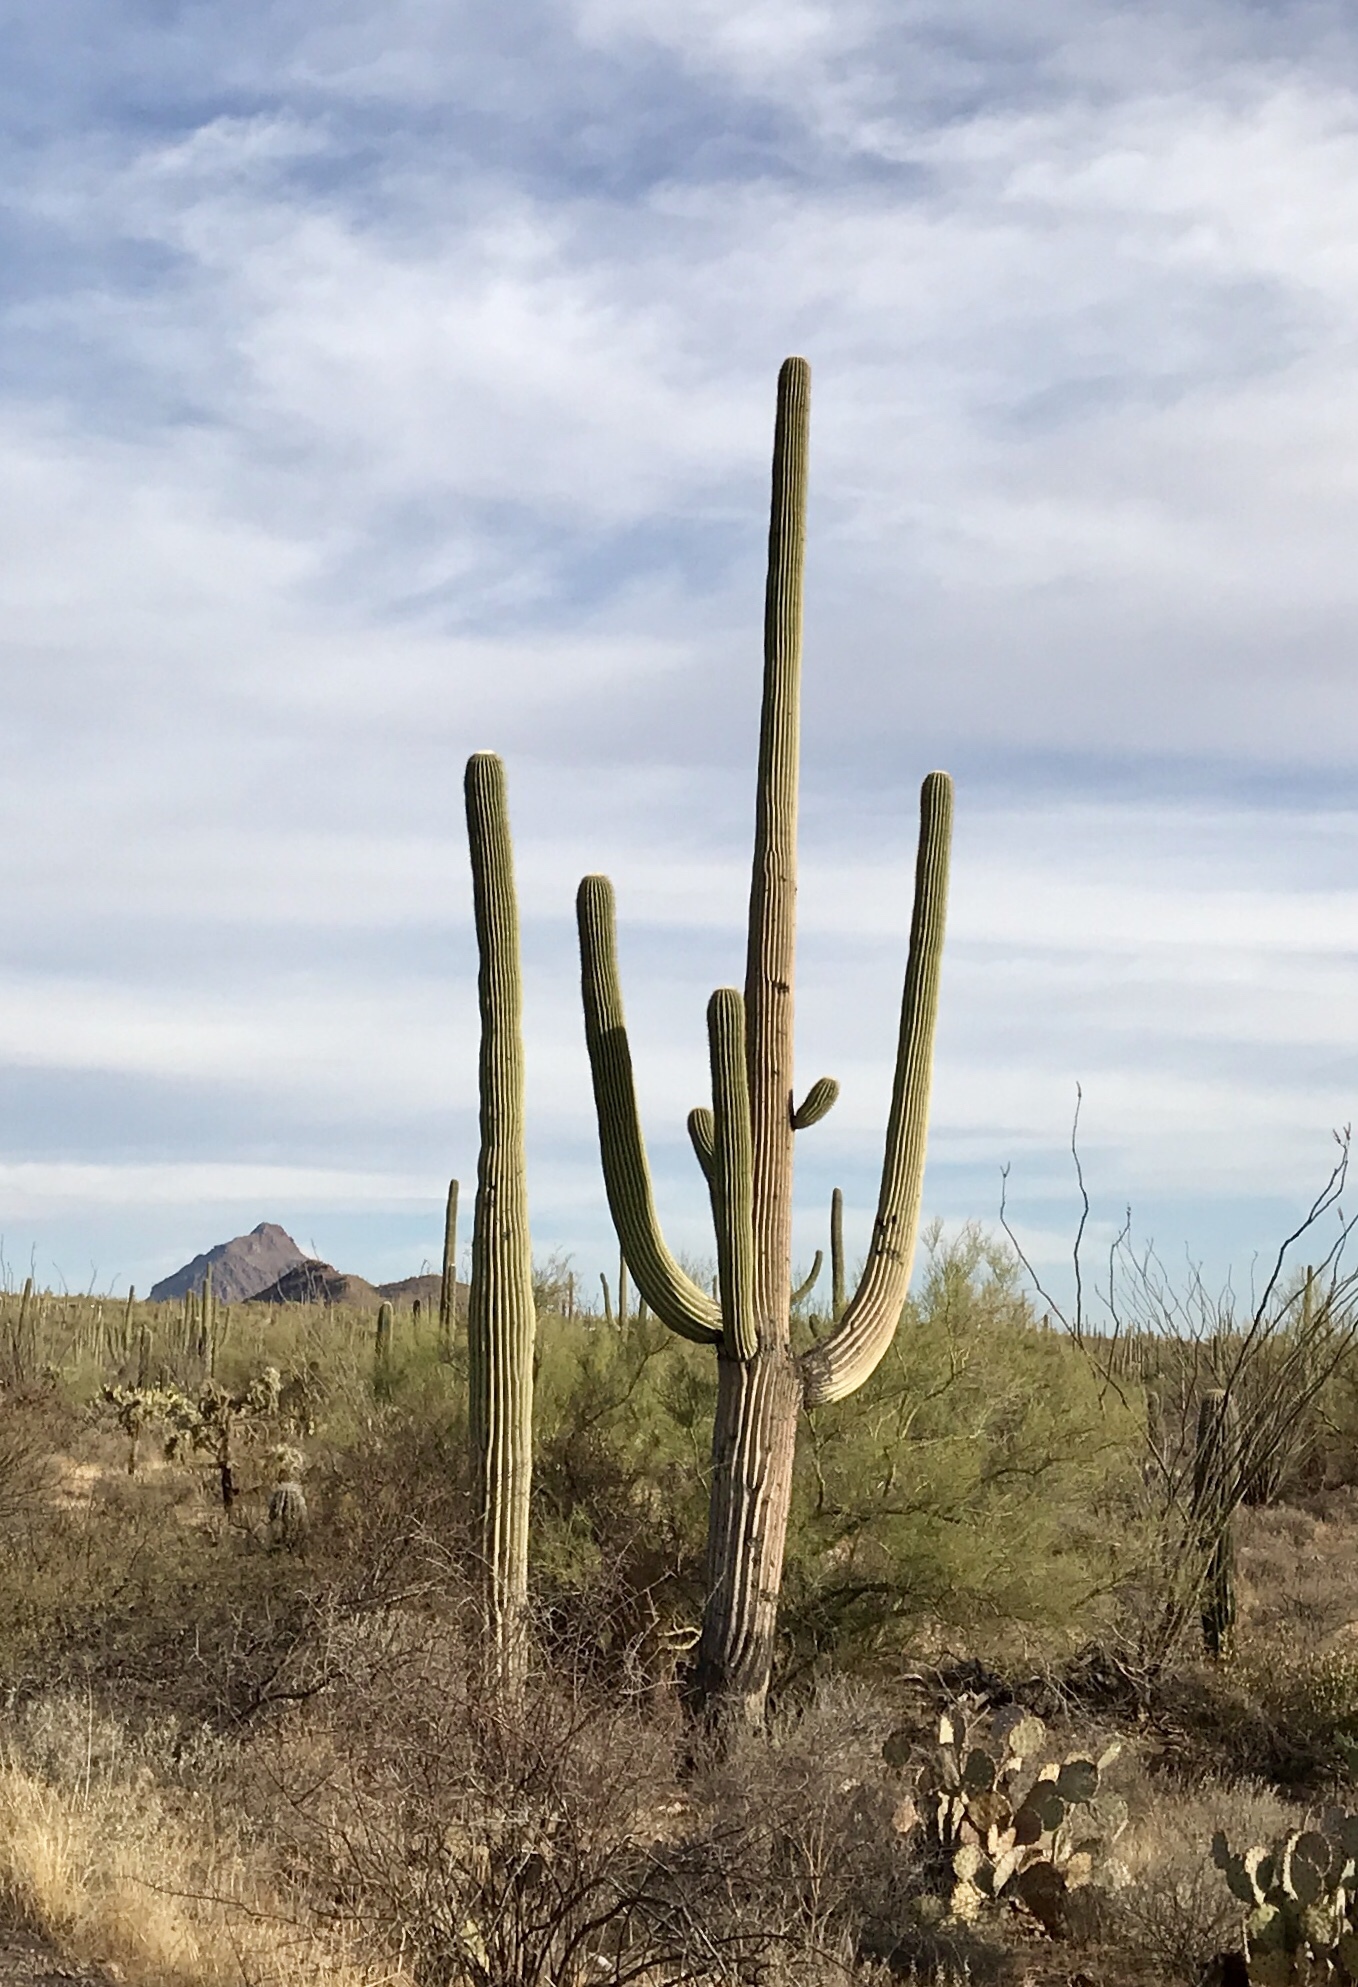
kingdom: Plantae
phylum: Tracheophyta
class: Magnoliopsida
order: Caryophyllales
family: Cactaceae
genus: Carnegiea
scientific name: Carnegiea gigantea
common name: Saguaro
